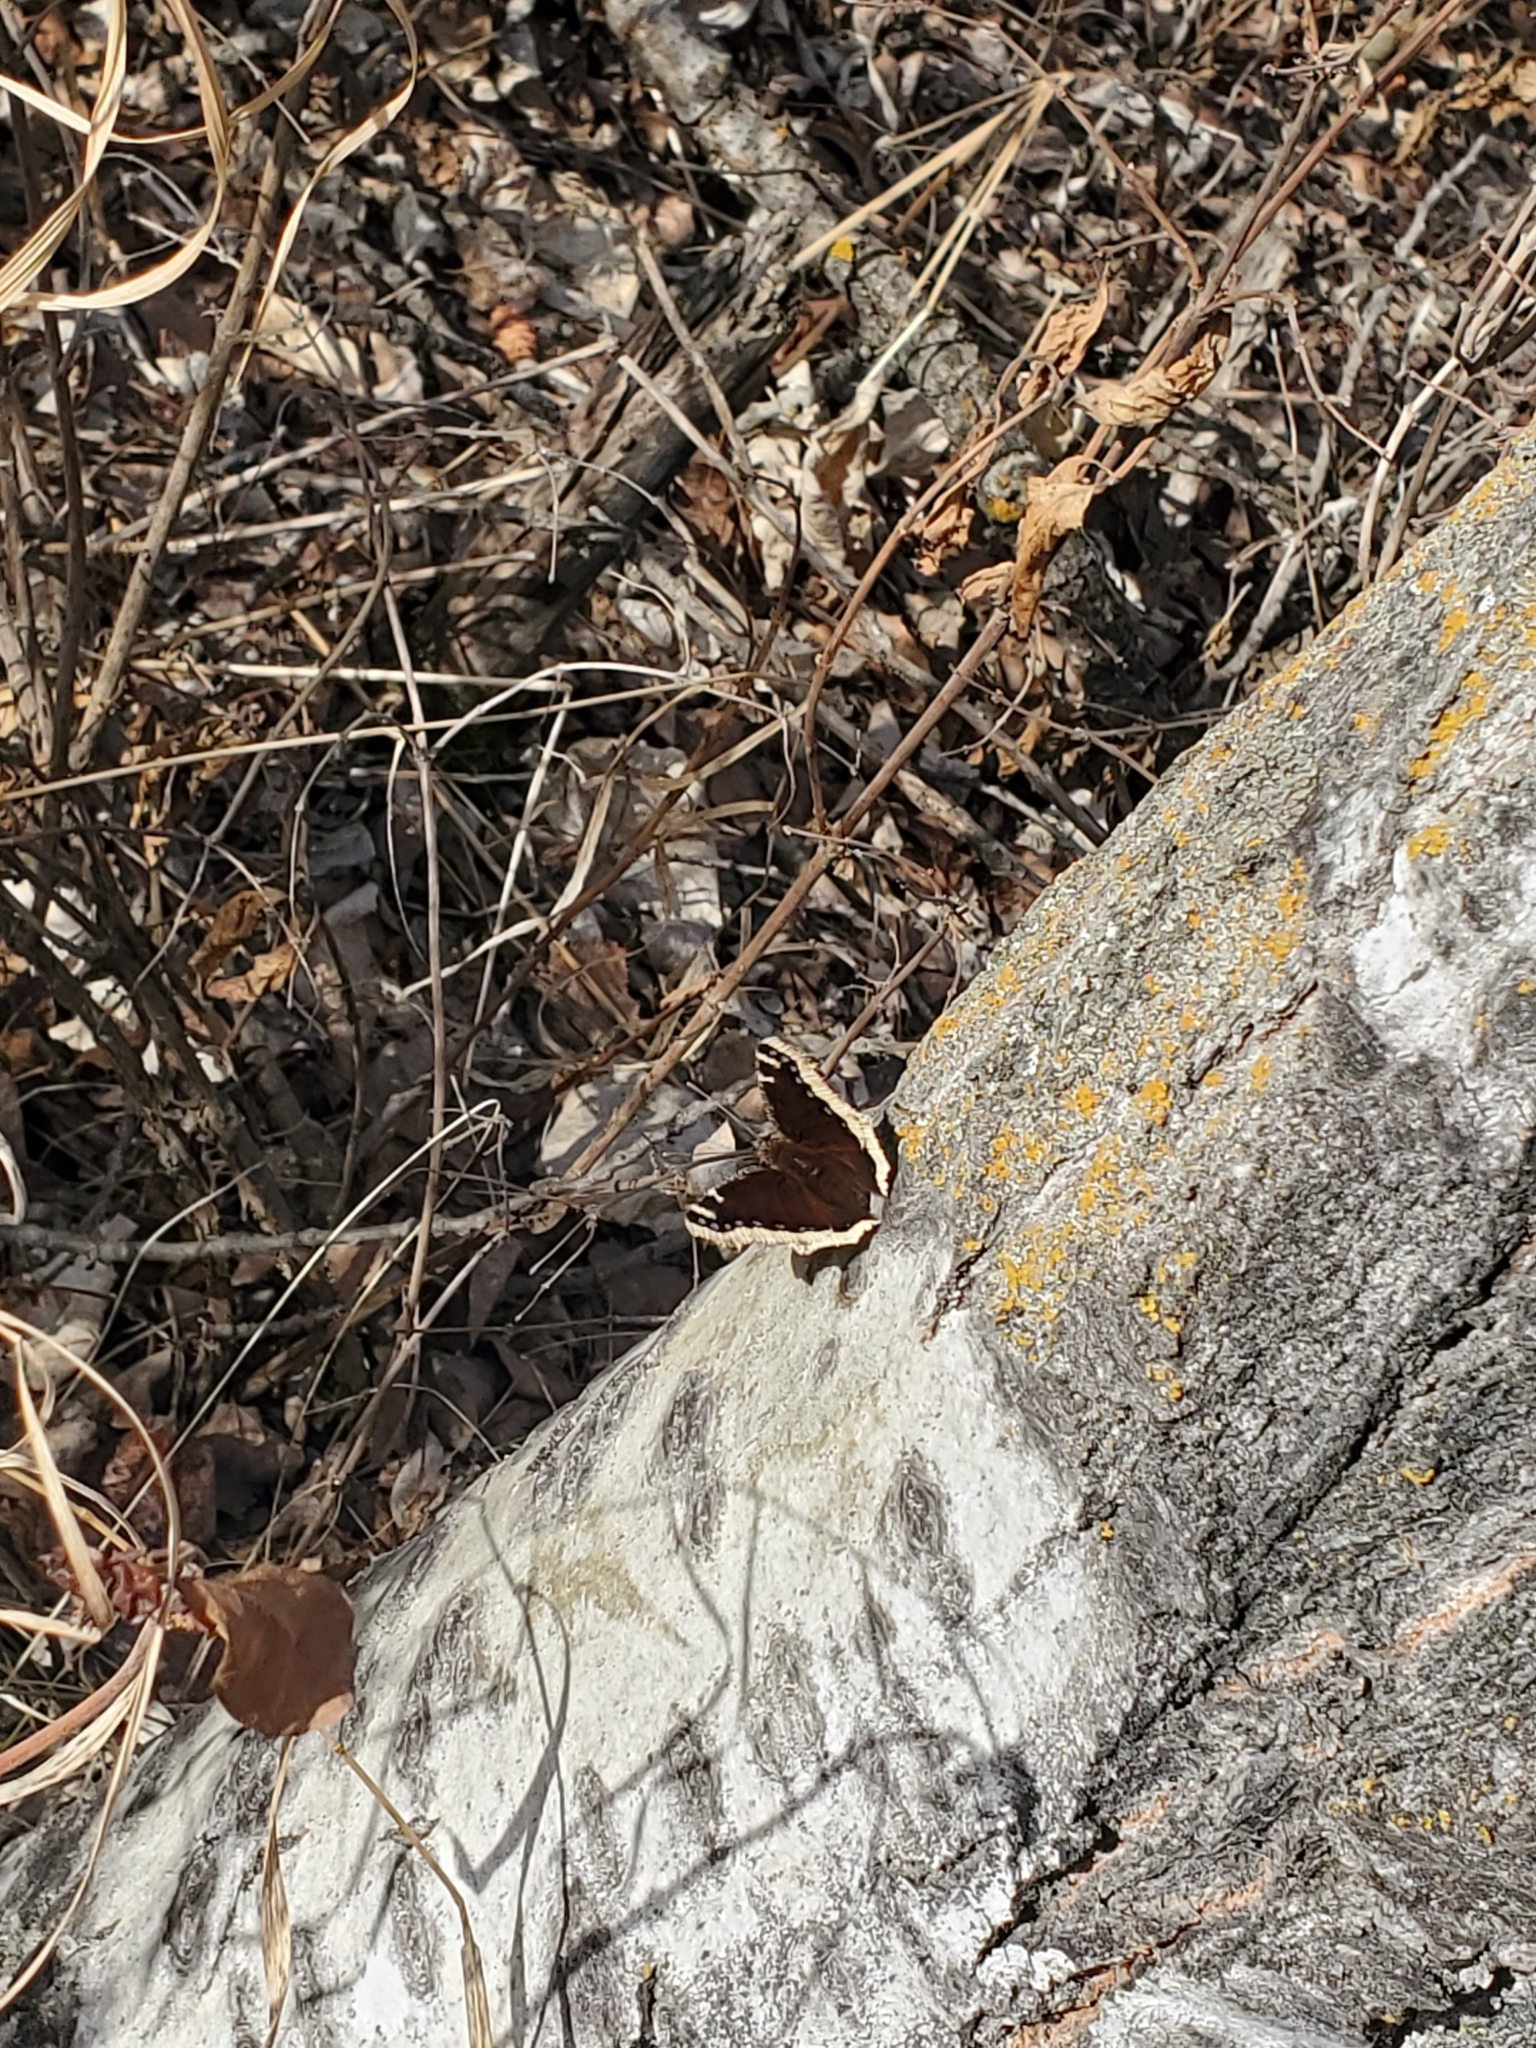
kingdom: Animalia
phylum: Arthropoda
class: Insecta
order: Lepidoptera
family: Nymphalidae
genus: Nymphalis
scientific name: Nymphalis antiopa
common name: Camberwell beauty
